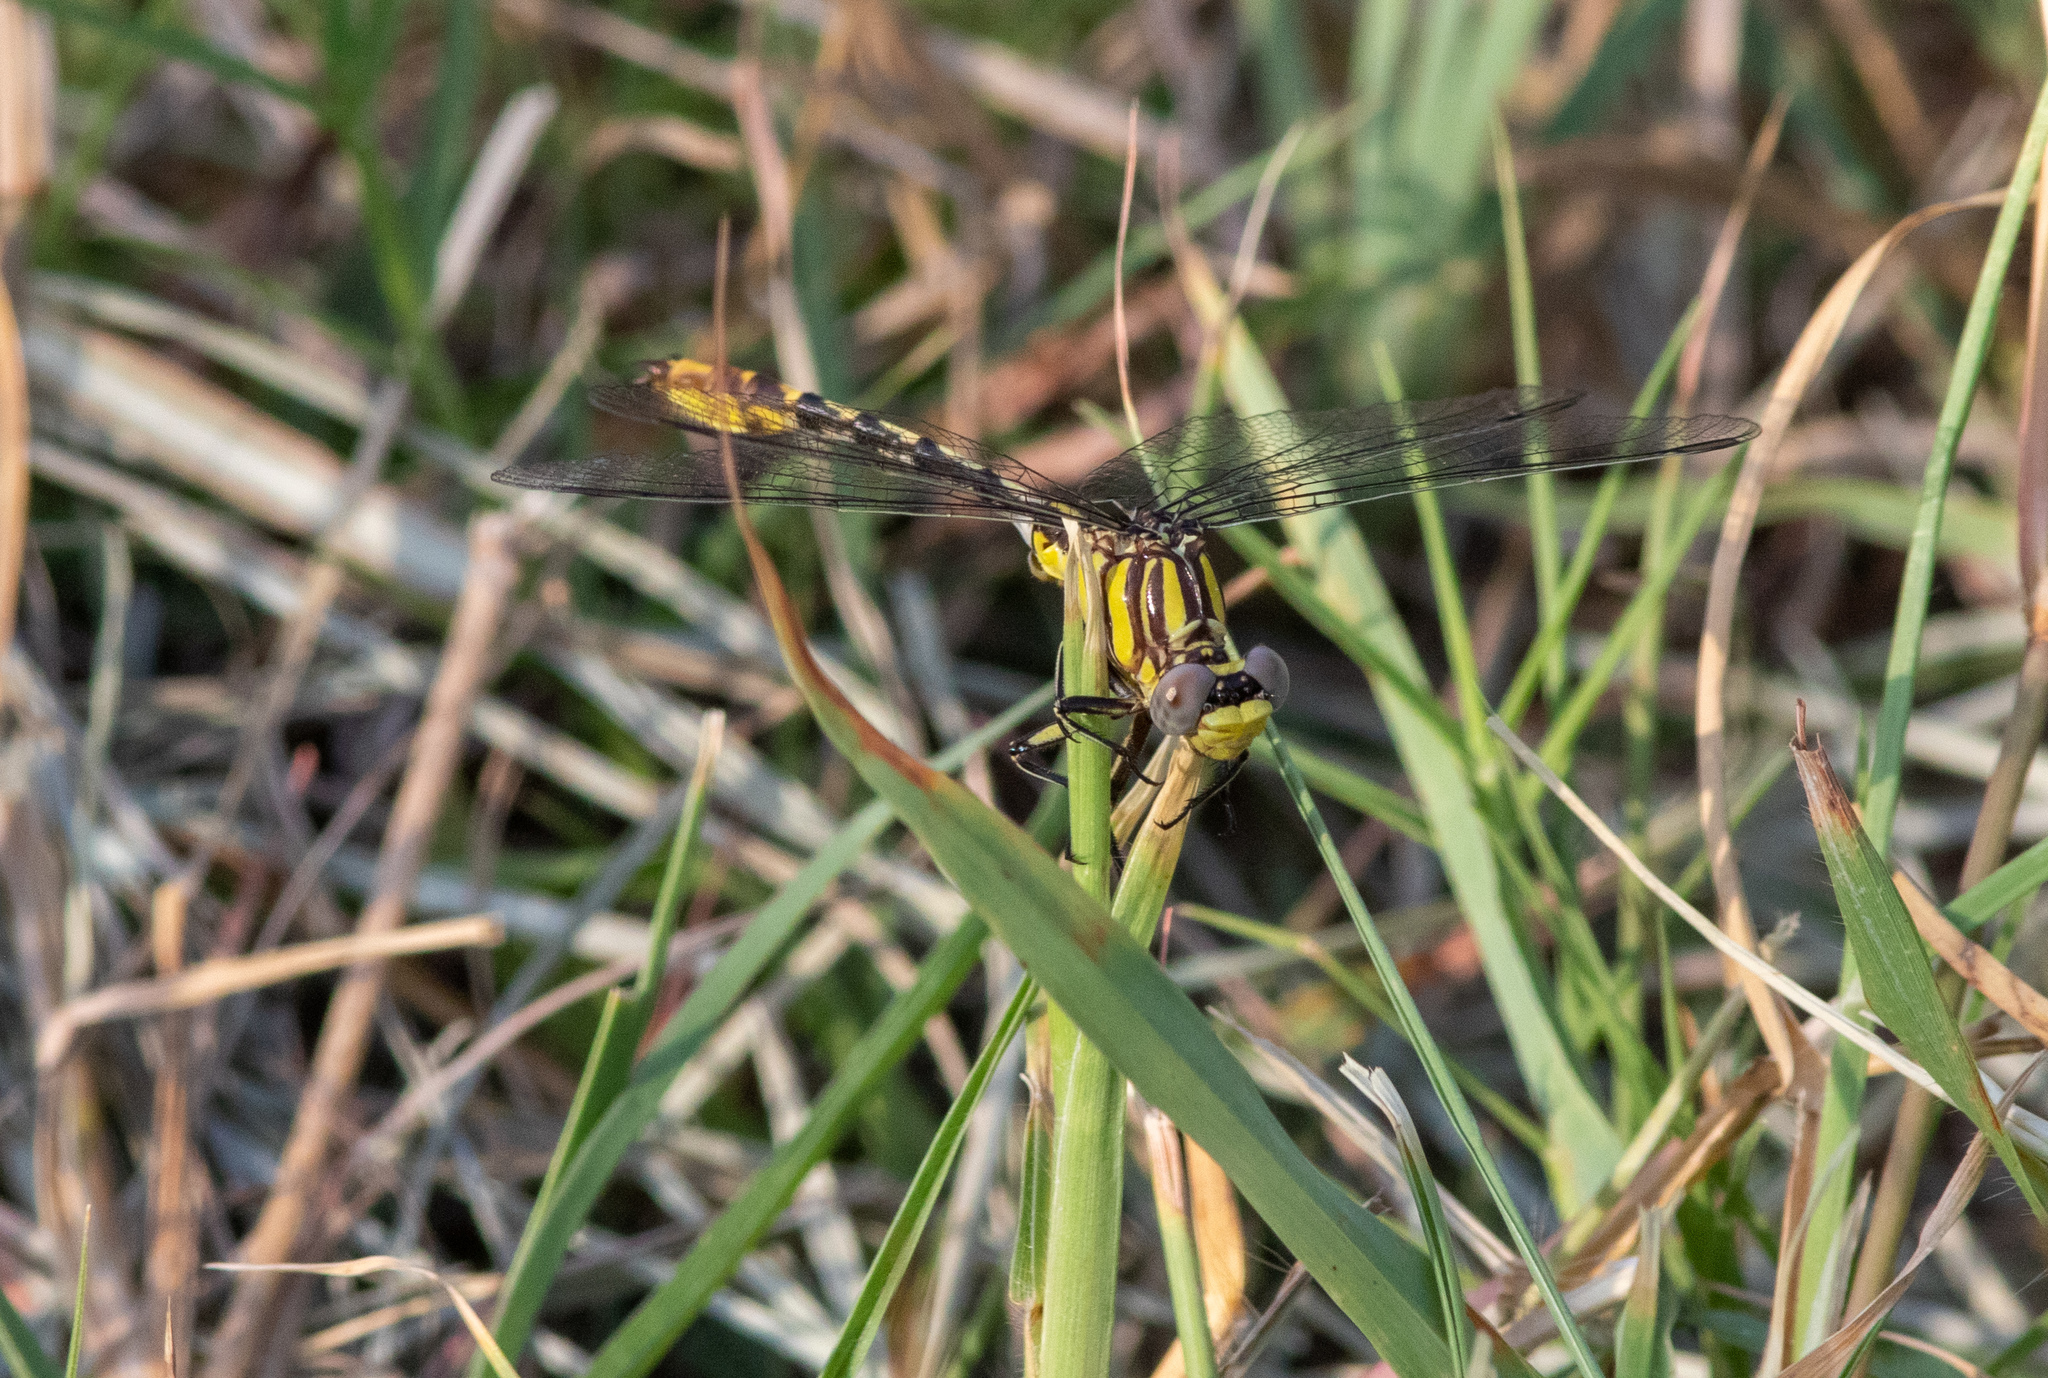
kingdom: Animalia
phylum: Arthropoda
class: Insecta
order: Odonata
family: Gomphidae
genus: Phanogomphus
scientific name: Phanogomphus militaris
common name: Sulphur-tipped clubtail
